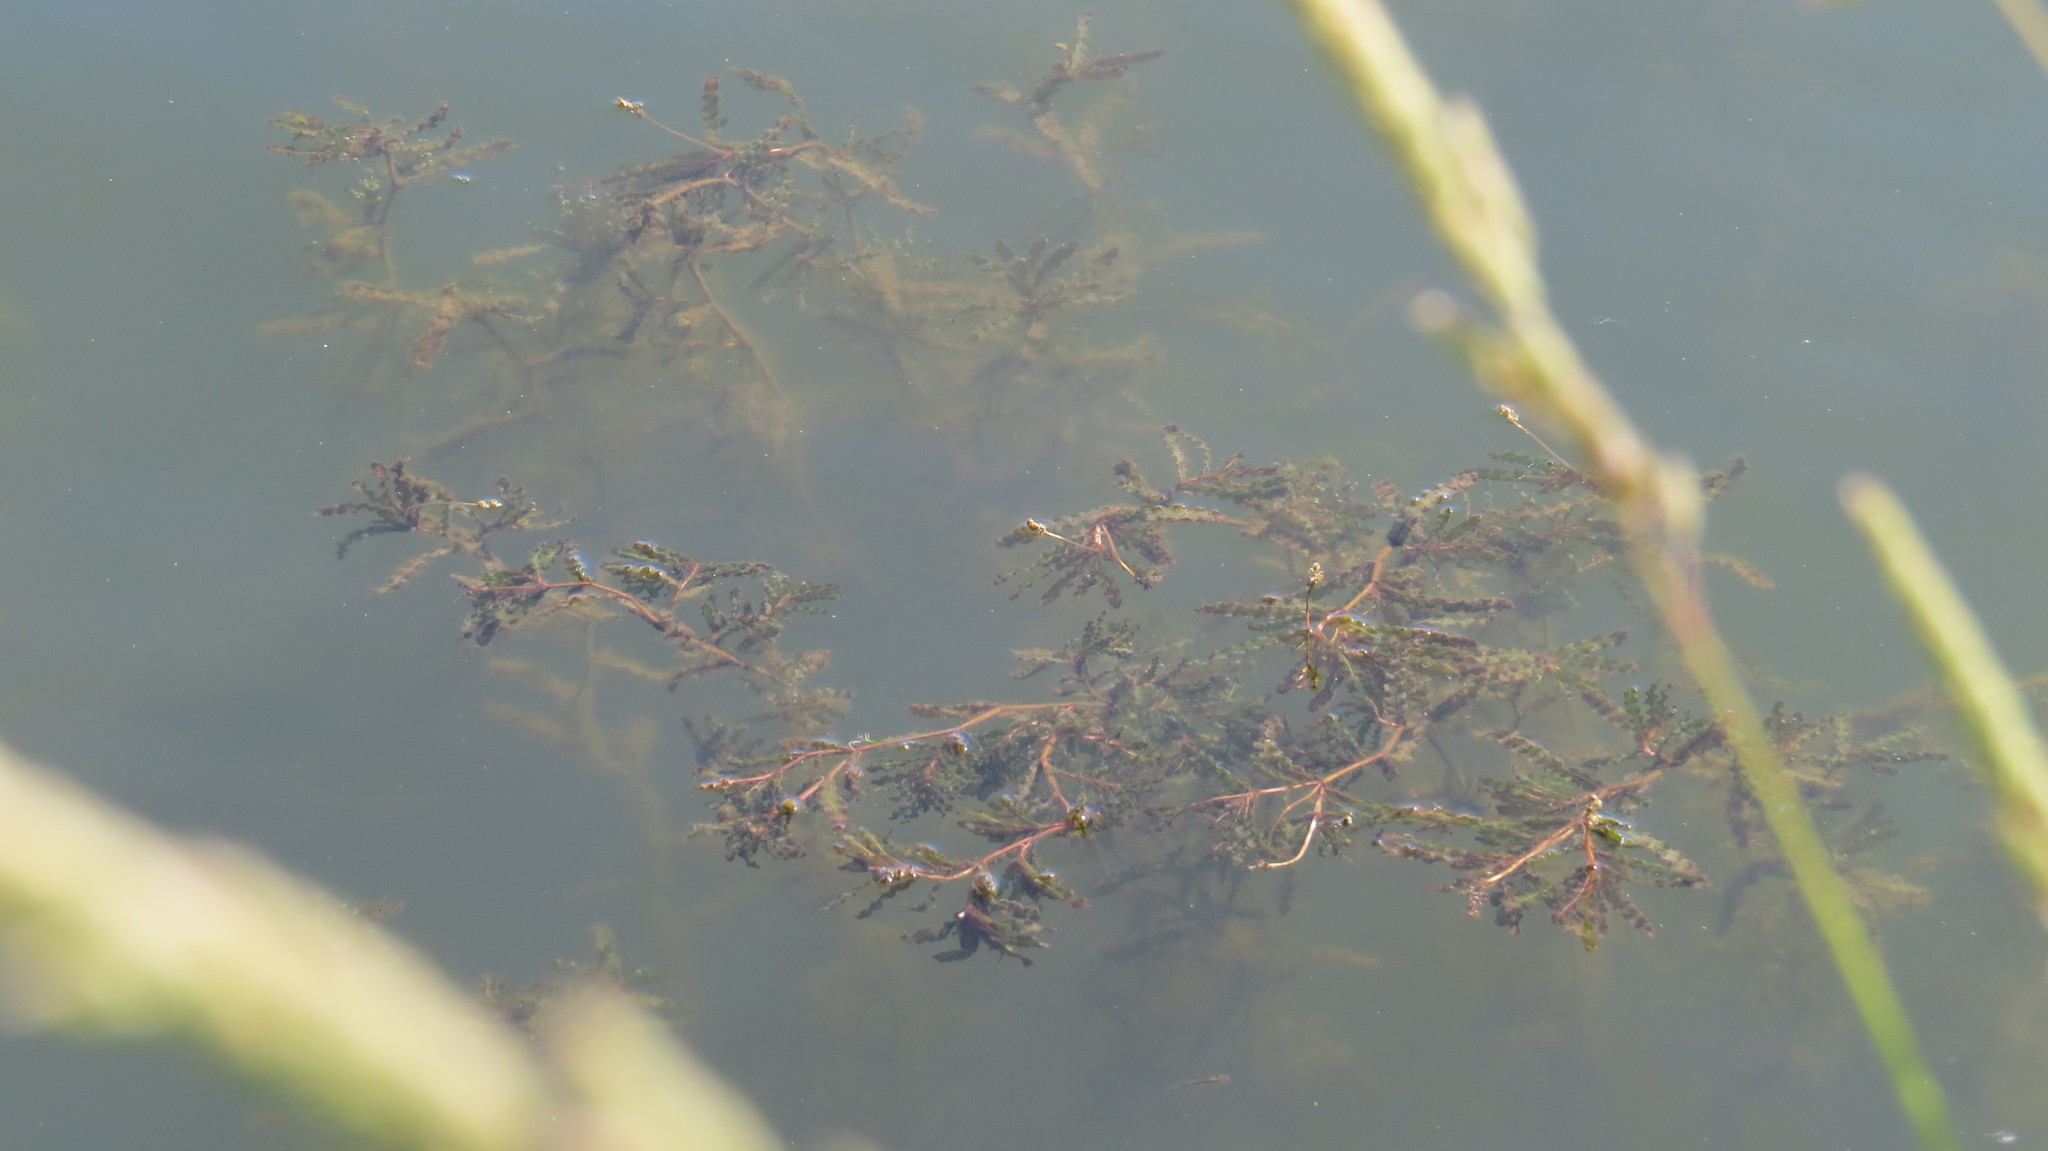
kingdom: Plantae
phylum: Tracheophyta
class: Liliopsida
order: Alismatales
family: Potamogetonaceae
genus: Potamogeton
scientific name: Potamogeton crispus
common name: Curled pondweed
